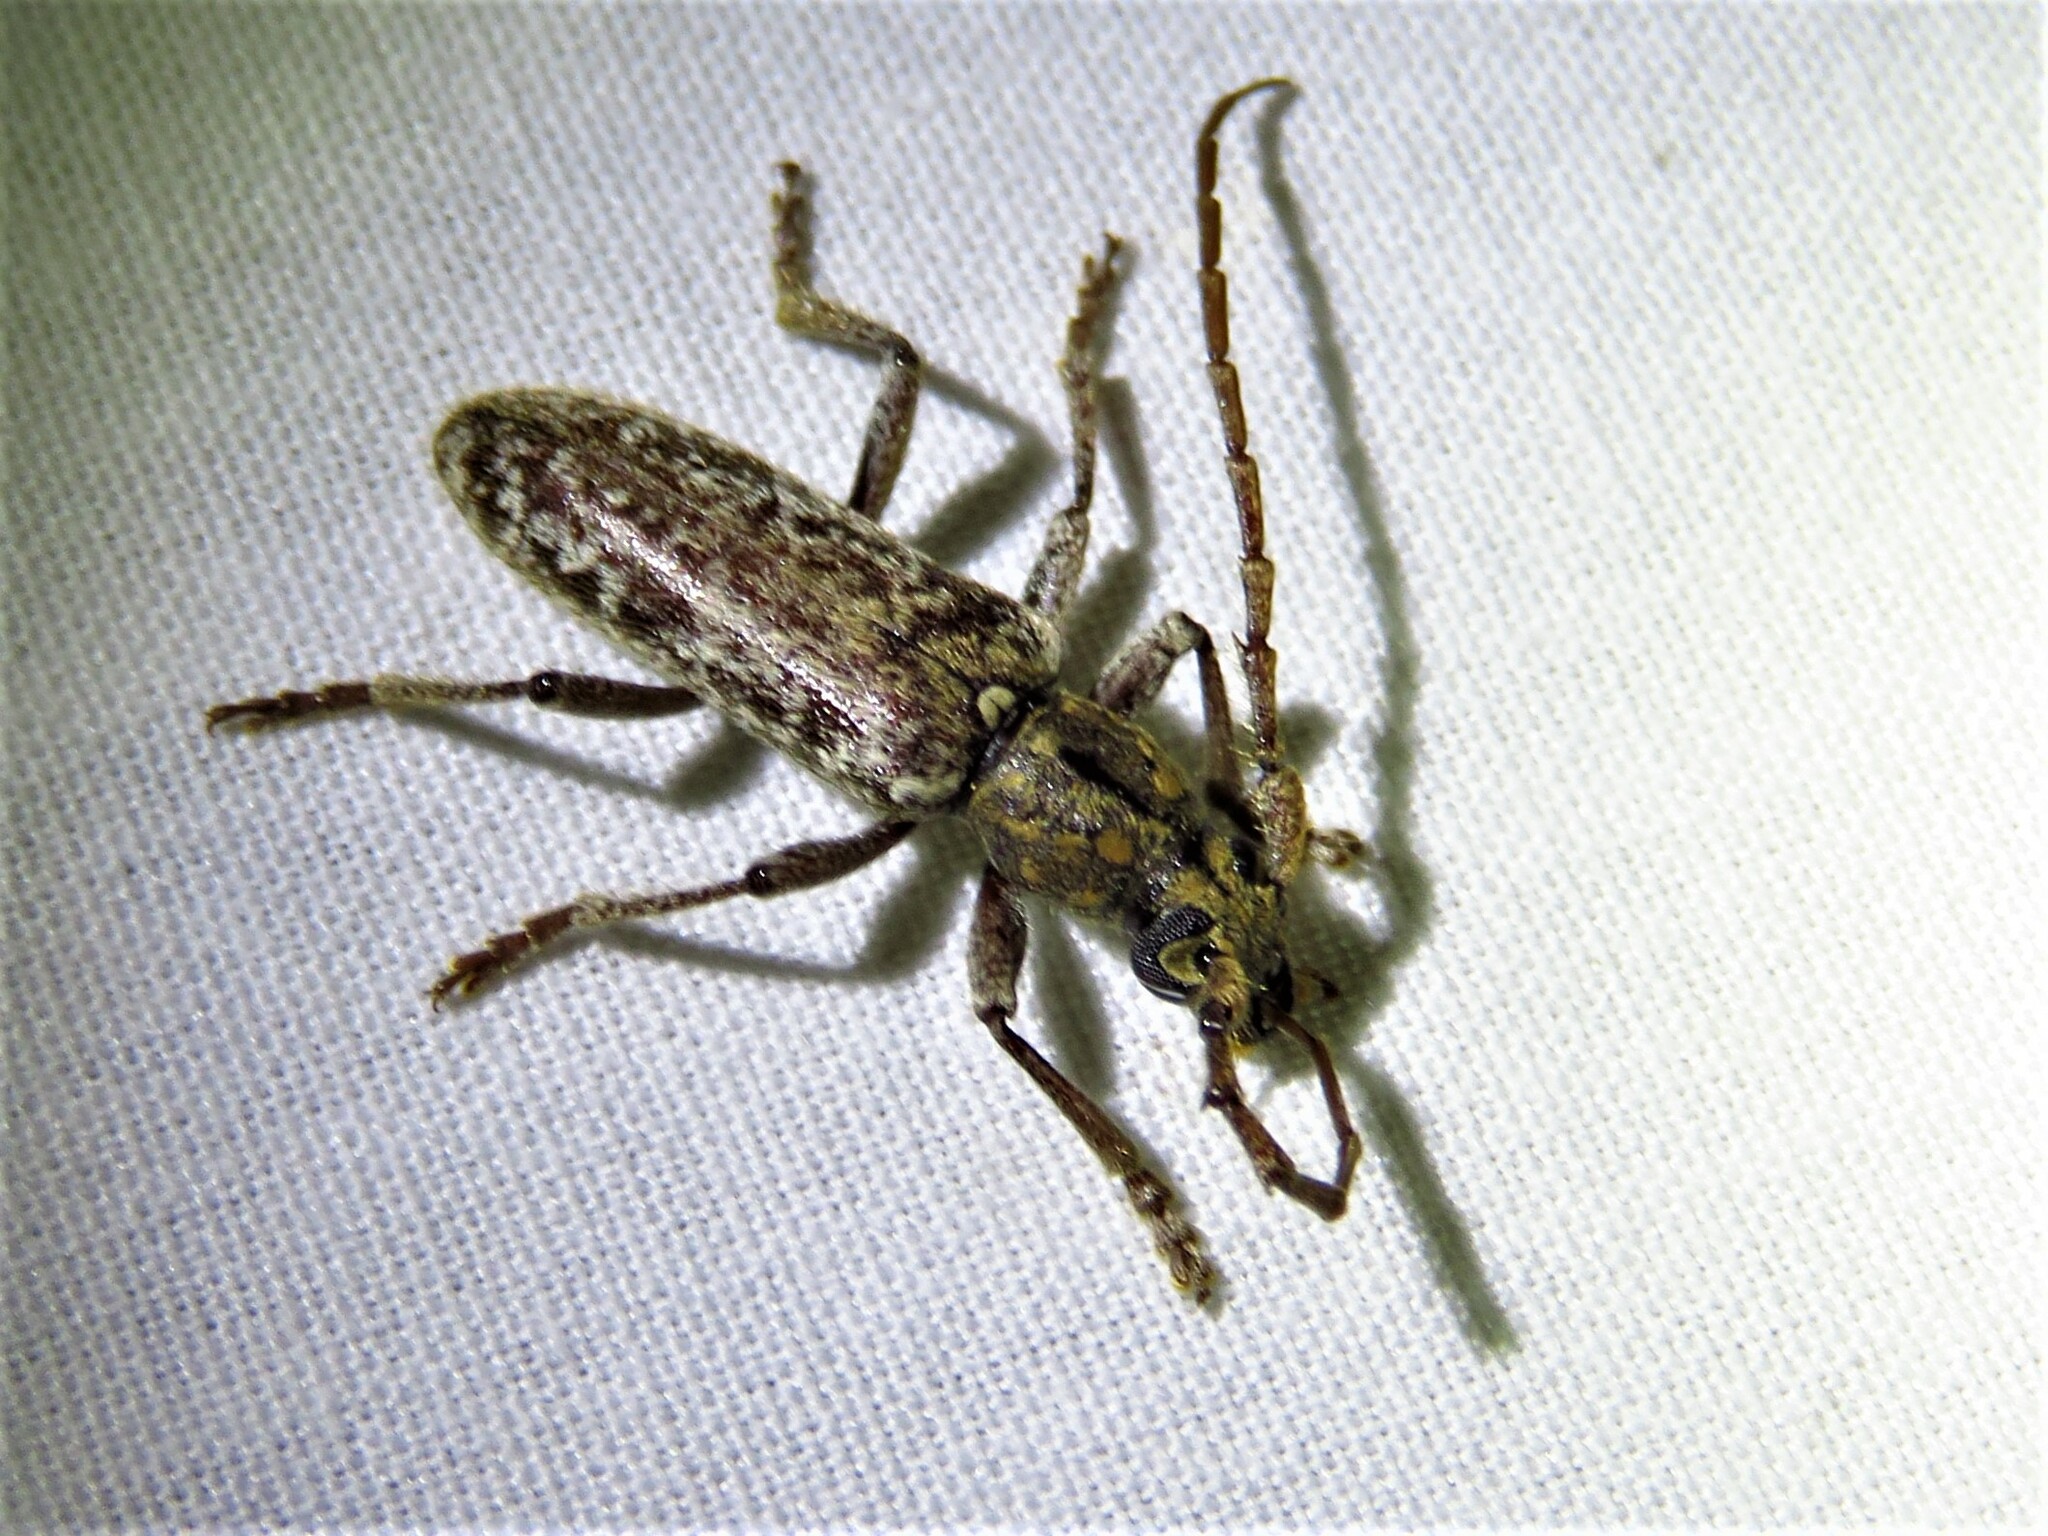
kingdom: Animalia
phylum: Arthropoda
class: Insecta
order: Coleoptera
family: Cerambycidae
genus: Anelaphus
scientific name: Anelaphus debilis
